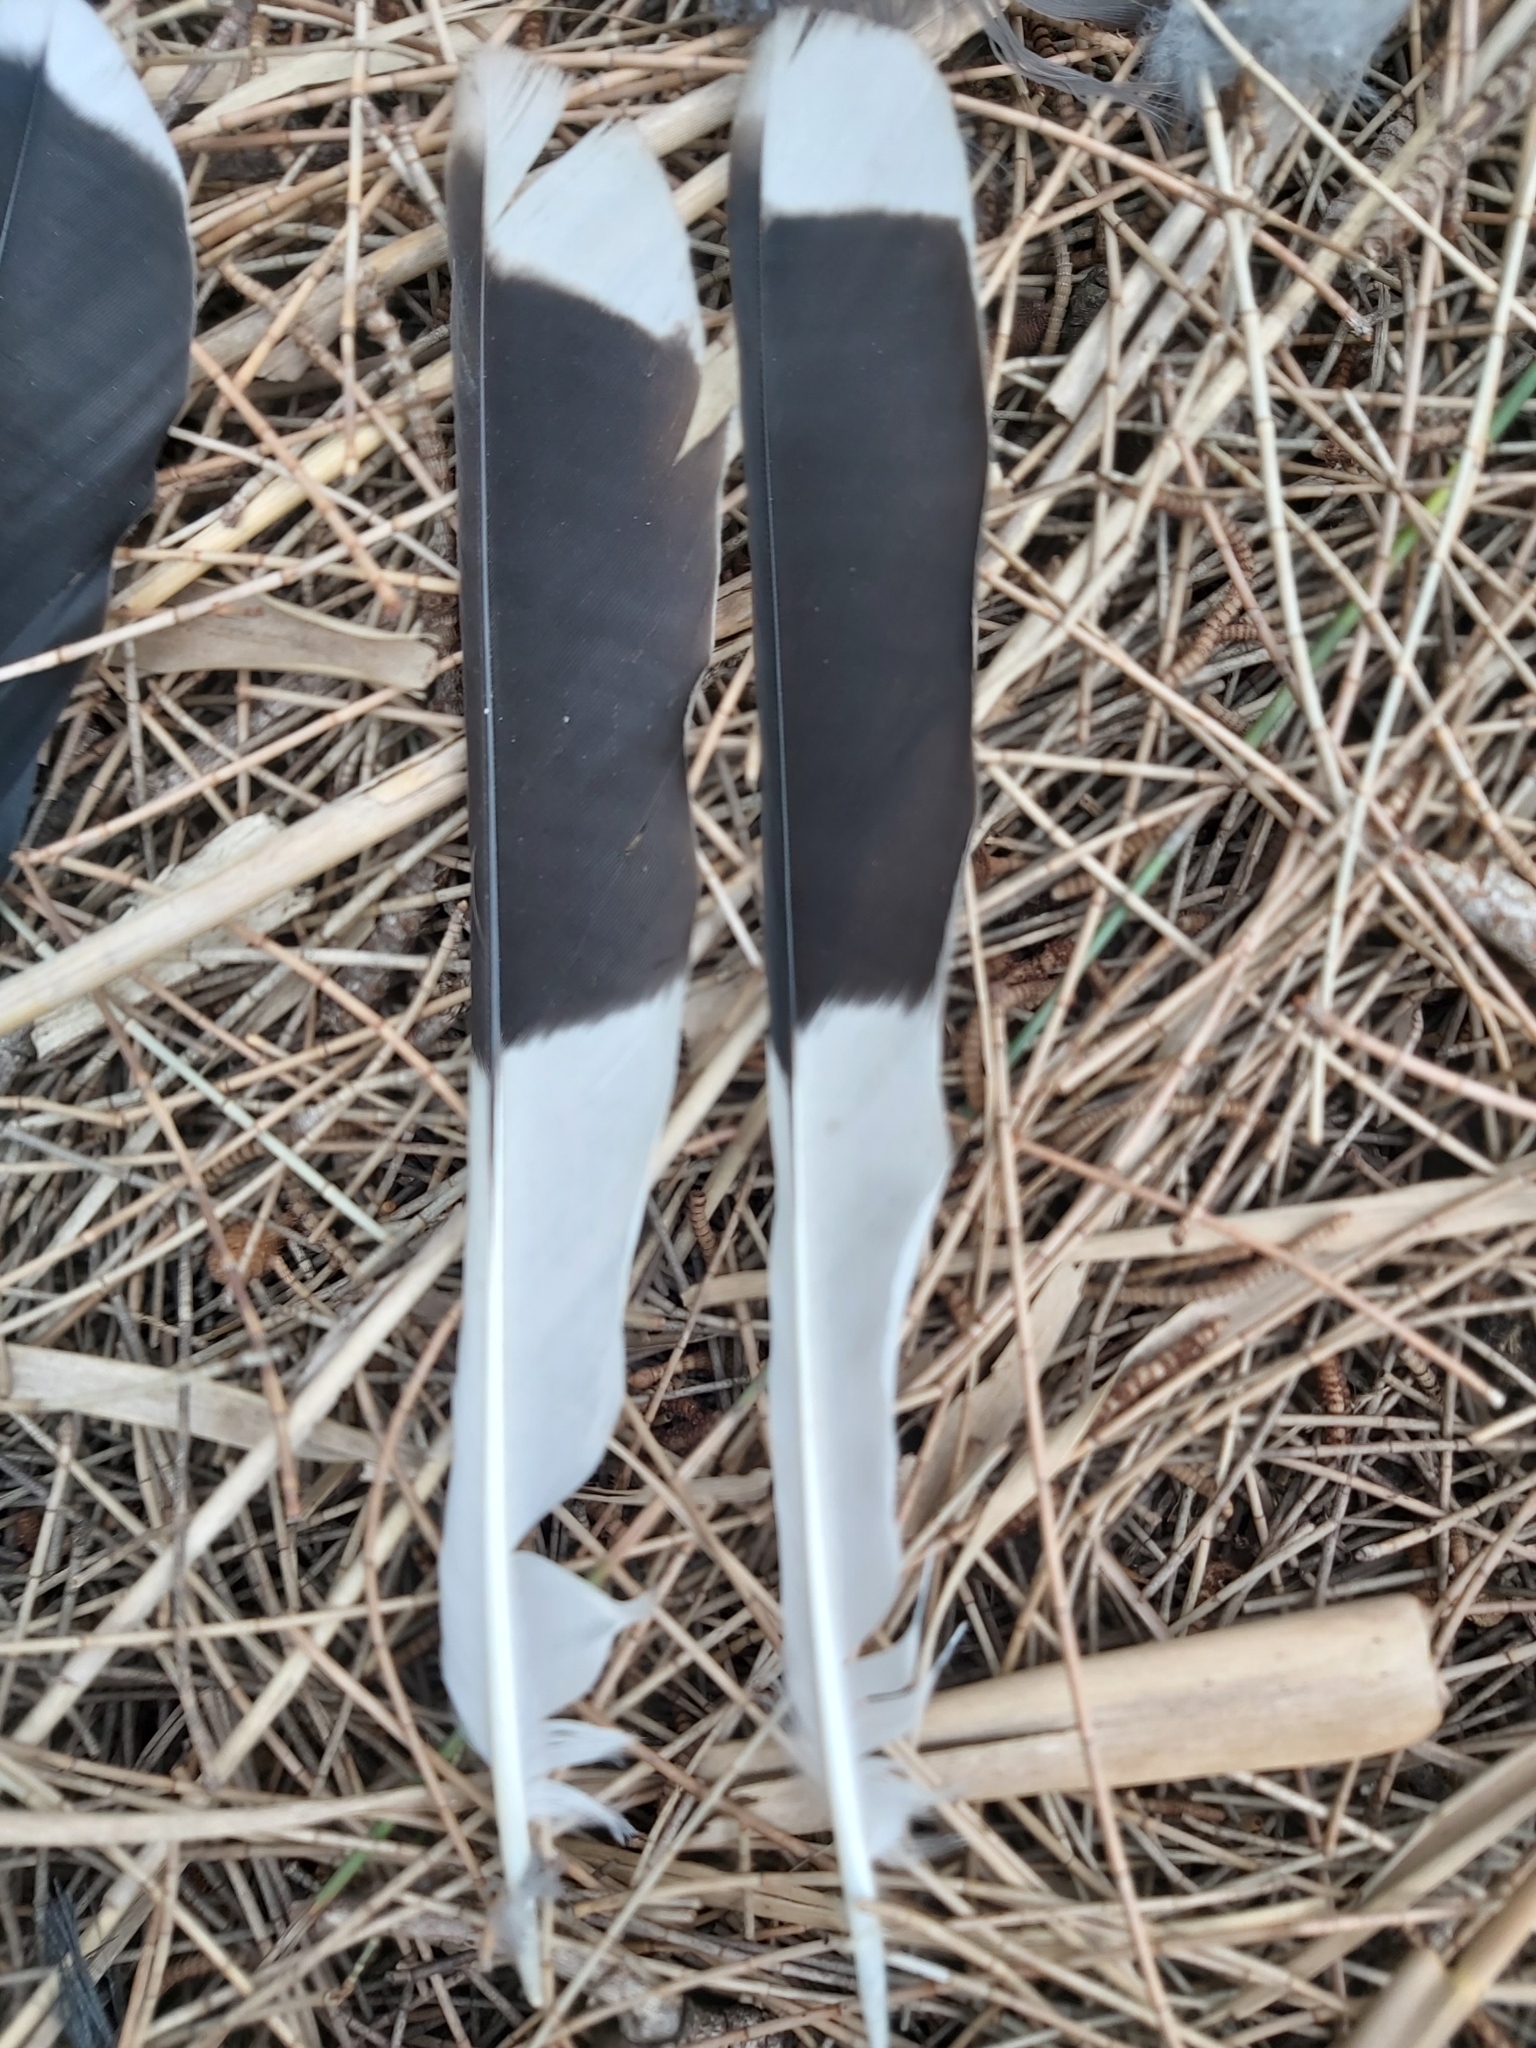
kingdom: Animalia
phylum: Chordata
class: Aves
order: Passeriformes
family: Cracticidae
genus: Strepera
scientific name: Strepera graculina
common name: Pied currawong
